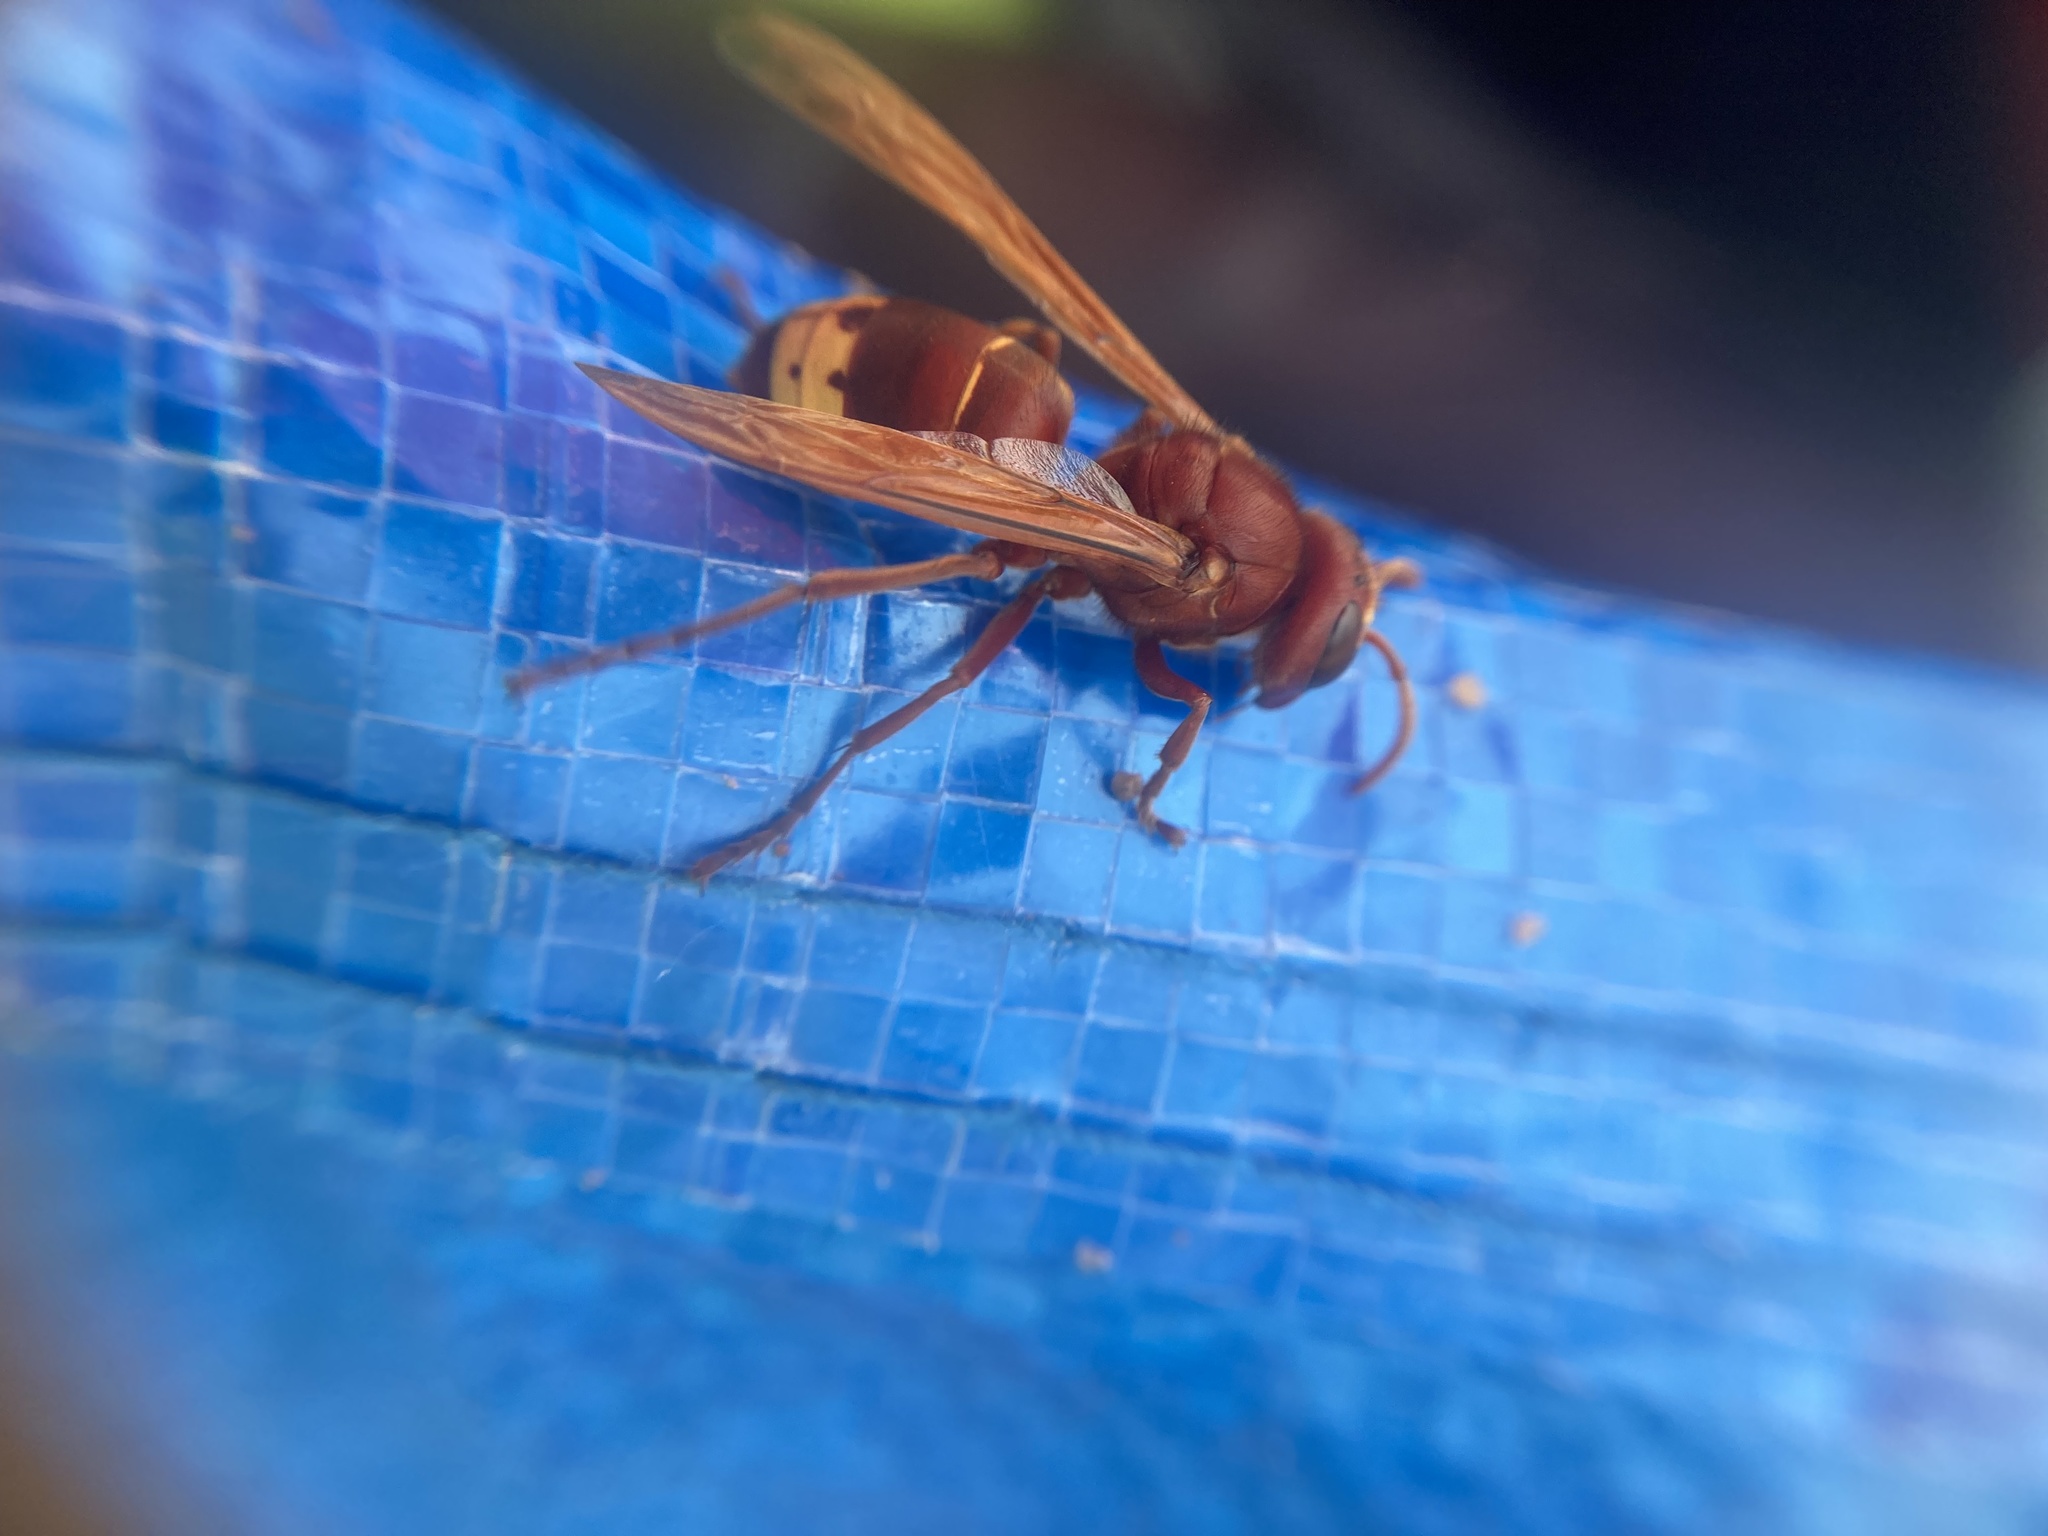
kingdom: Animalia
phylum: Arthropoda
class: Insecta
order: Hymenoptera
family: Vespidae
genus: Vespa
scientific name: Vespa orientalis
